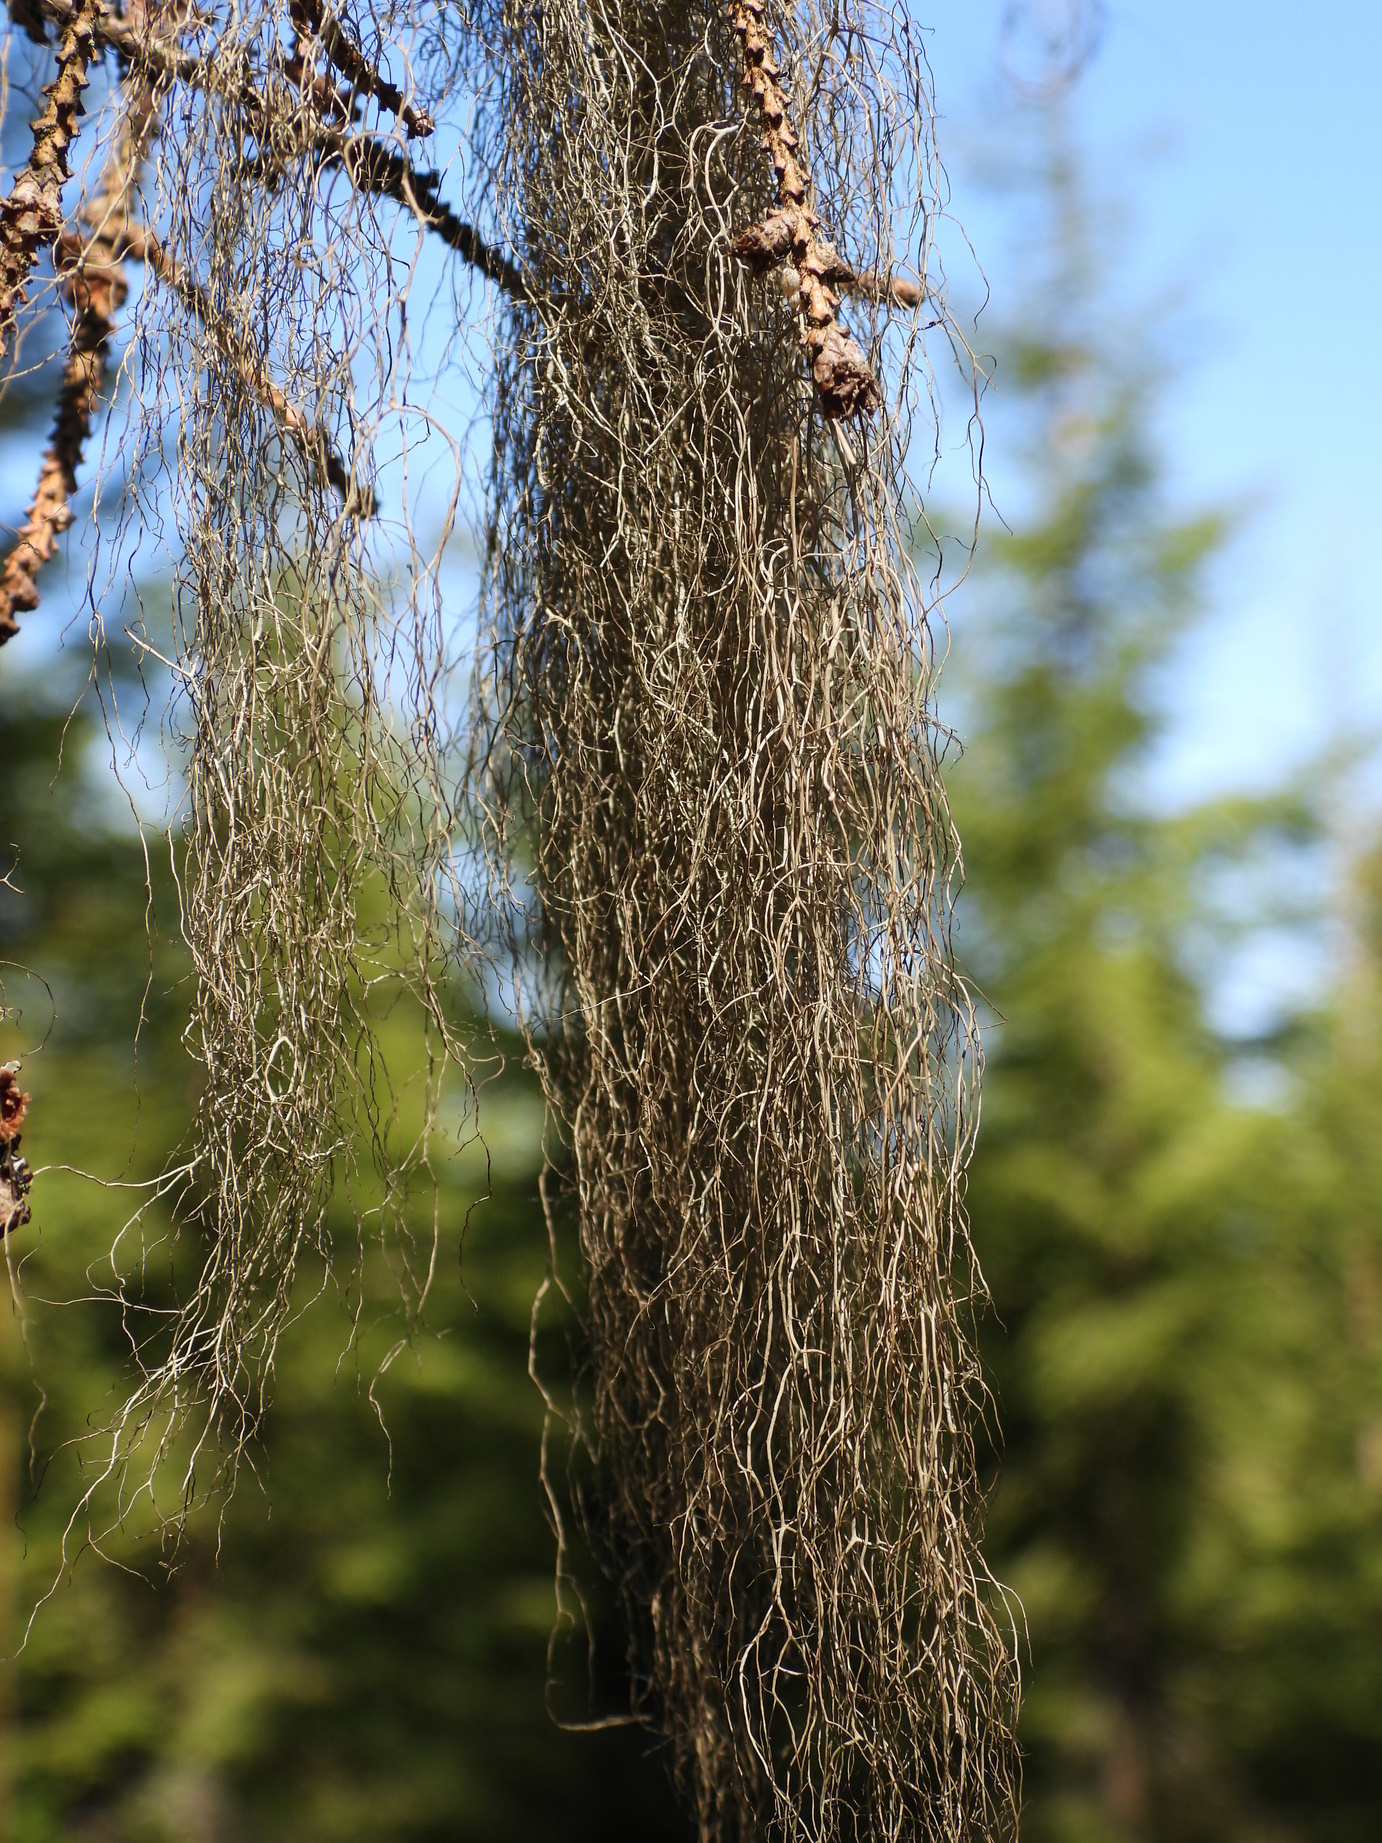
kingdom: Fungi
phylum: Ascomycota
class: Lecanoromycetes
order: Lecanorales
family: Parmeliaceae
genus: Bryoria
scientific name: Bryoria fuscescens
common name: Pale-footed horsehair lichen
